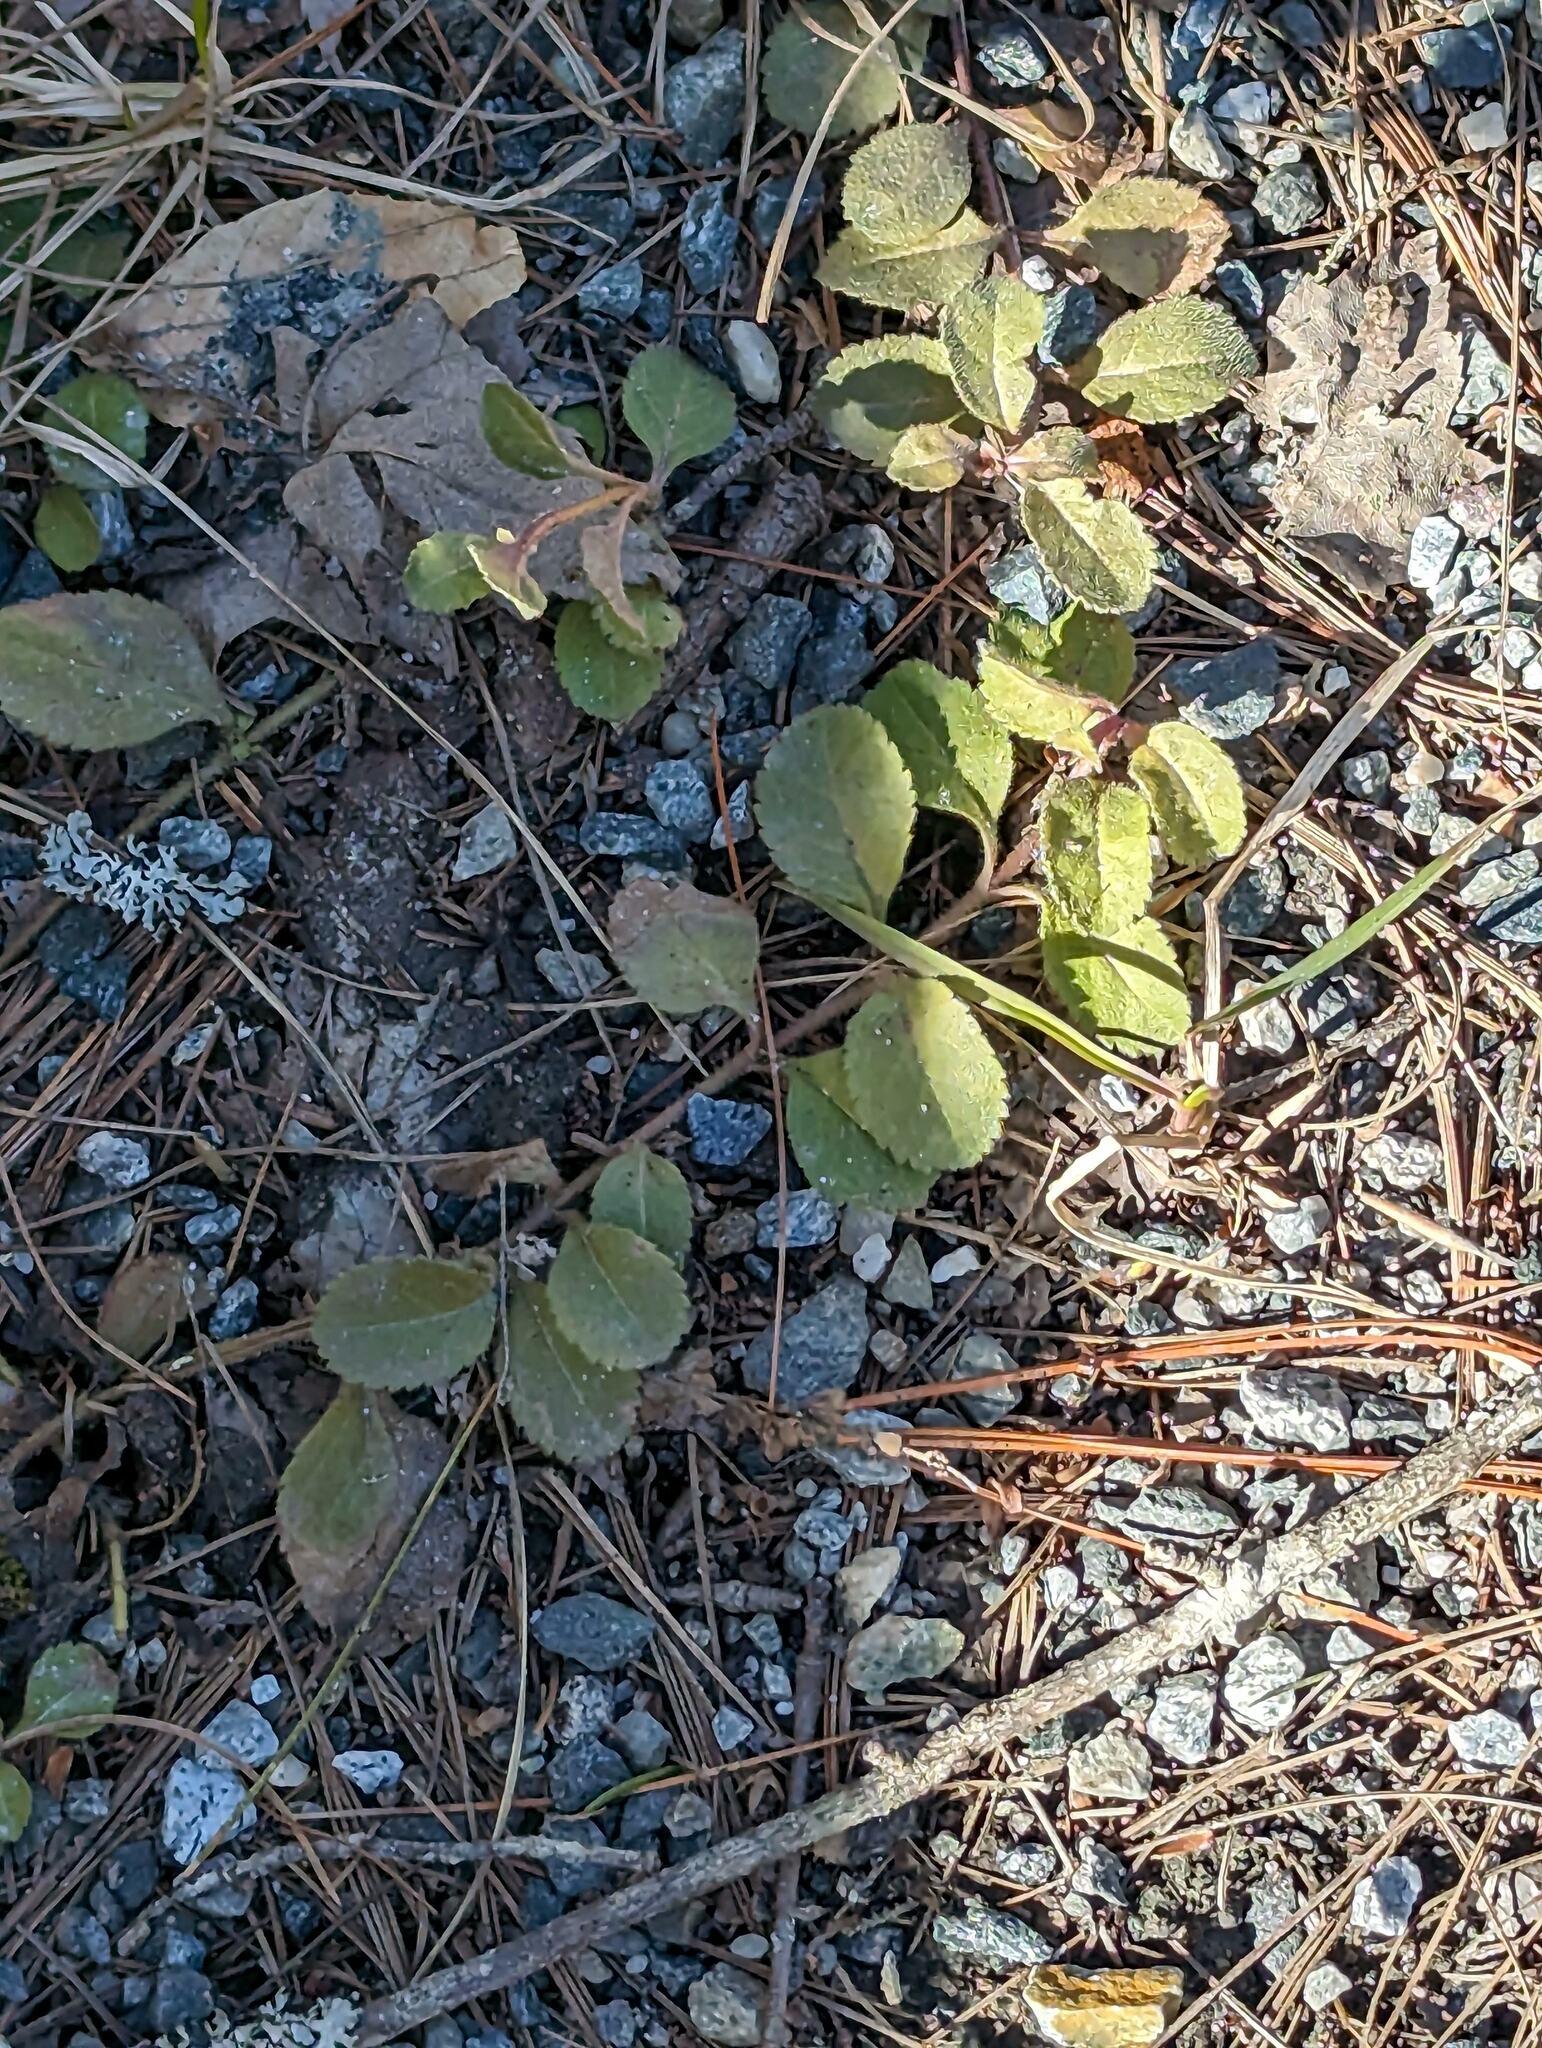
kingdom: Plantae
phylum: Tracheophyta
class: Magnoliopsida
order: Lamiales
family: Plantaginaceae
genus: Veronica
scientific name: Veronica officinalis
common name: Common speedwell
